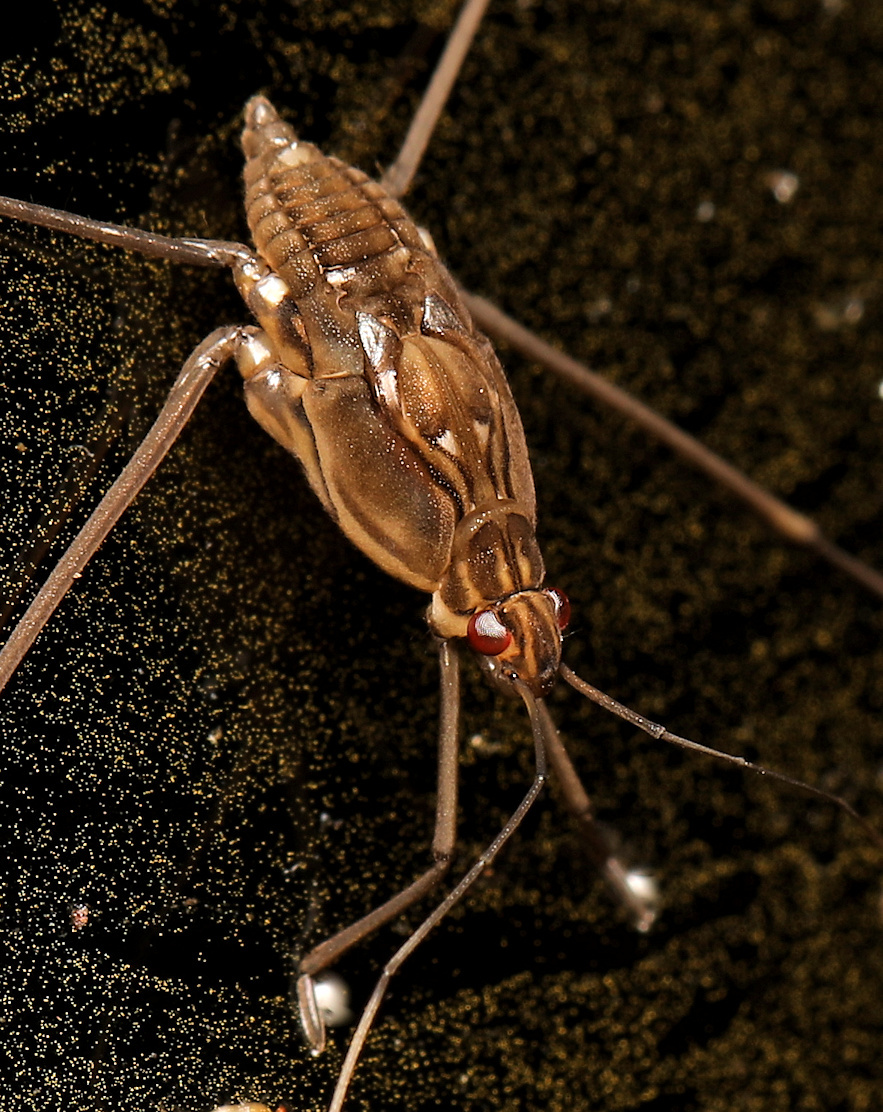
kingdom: Animalia
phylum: Arthropoda
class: Insecta
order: Hemiptera
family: Gerridae
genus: Tenagogonus
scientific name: Tenagogonus zambezinus
